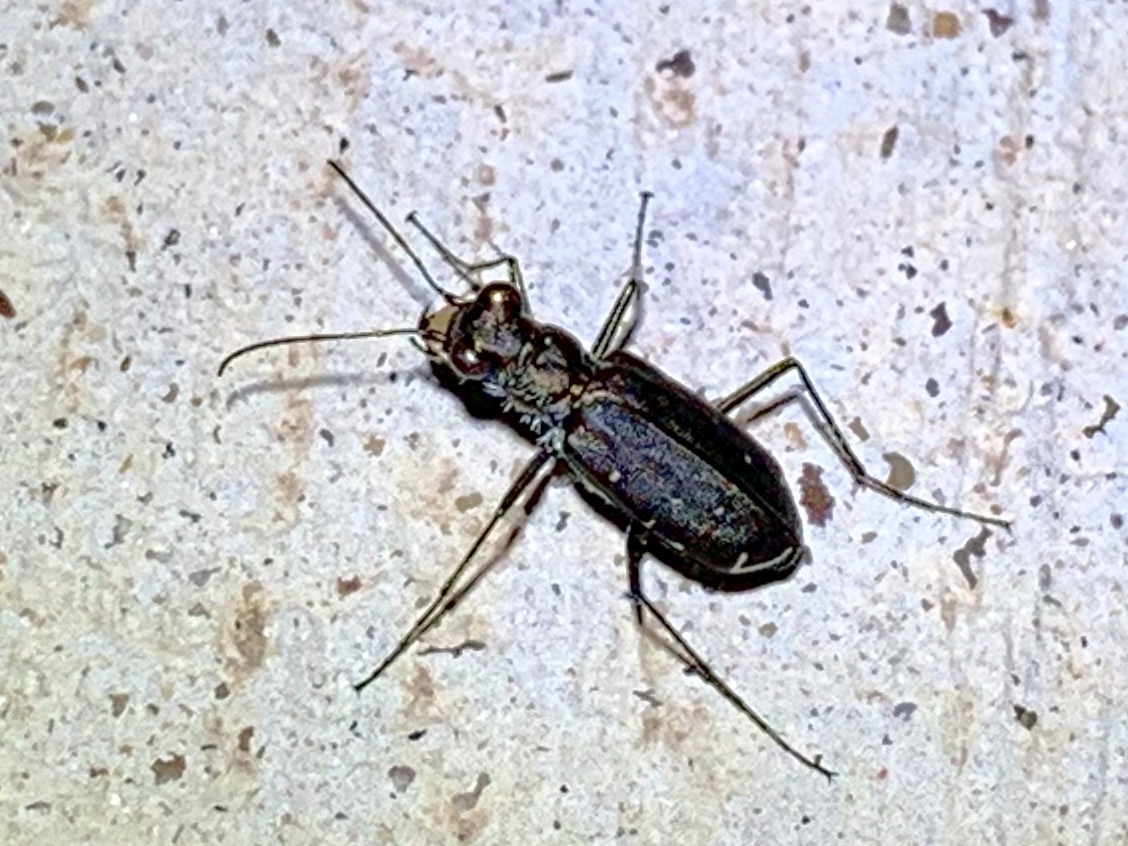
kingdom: Animalia
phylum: Arthropoda
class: Insecta
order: Coleoptera
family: Carabidae
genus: Cicindela
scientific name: Cicindela punctulata
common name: Punctured tiger beetle
